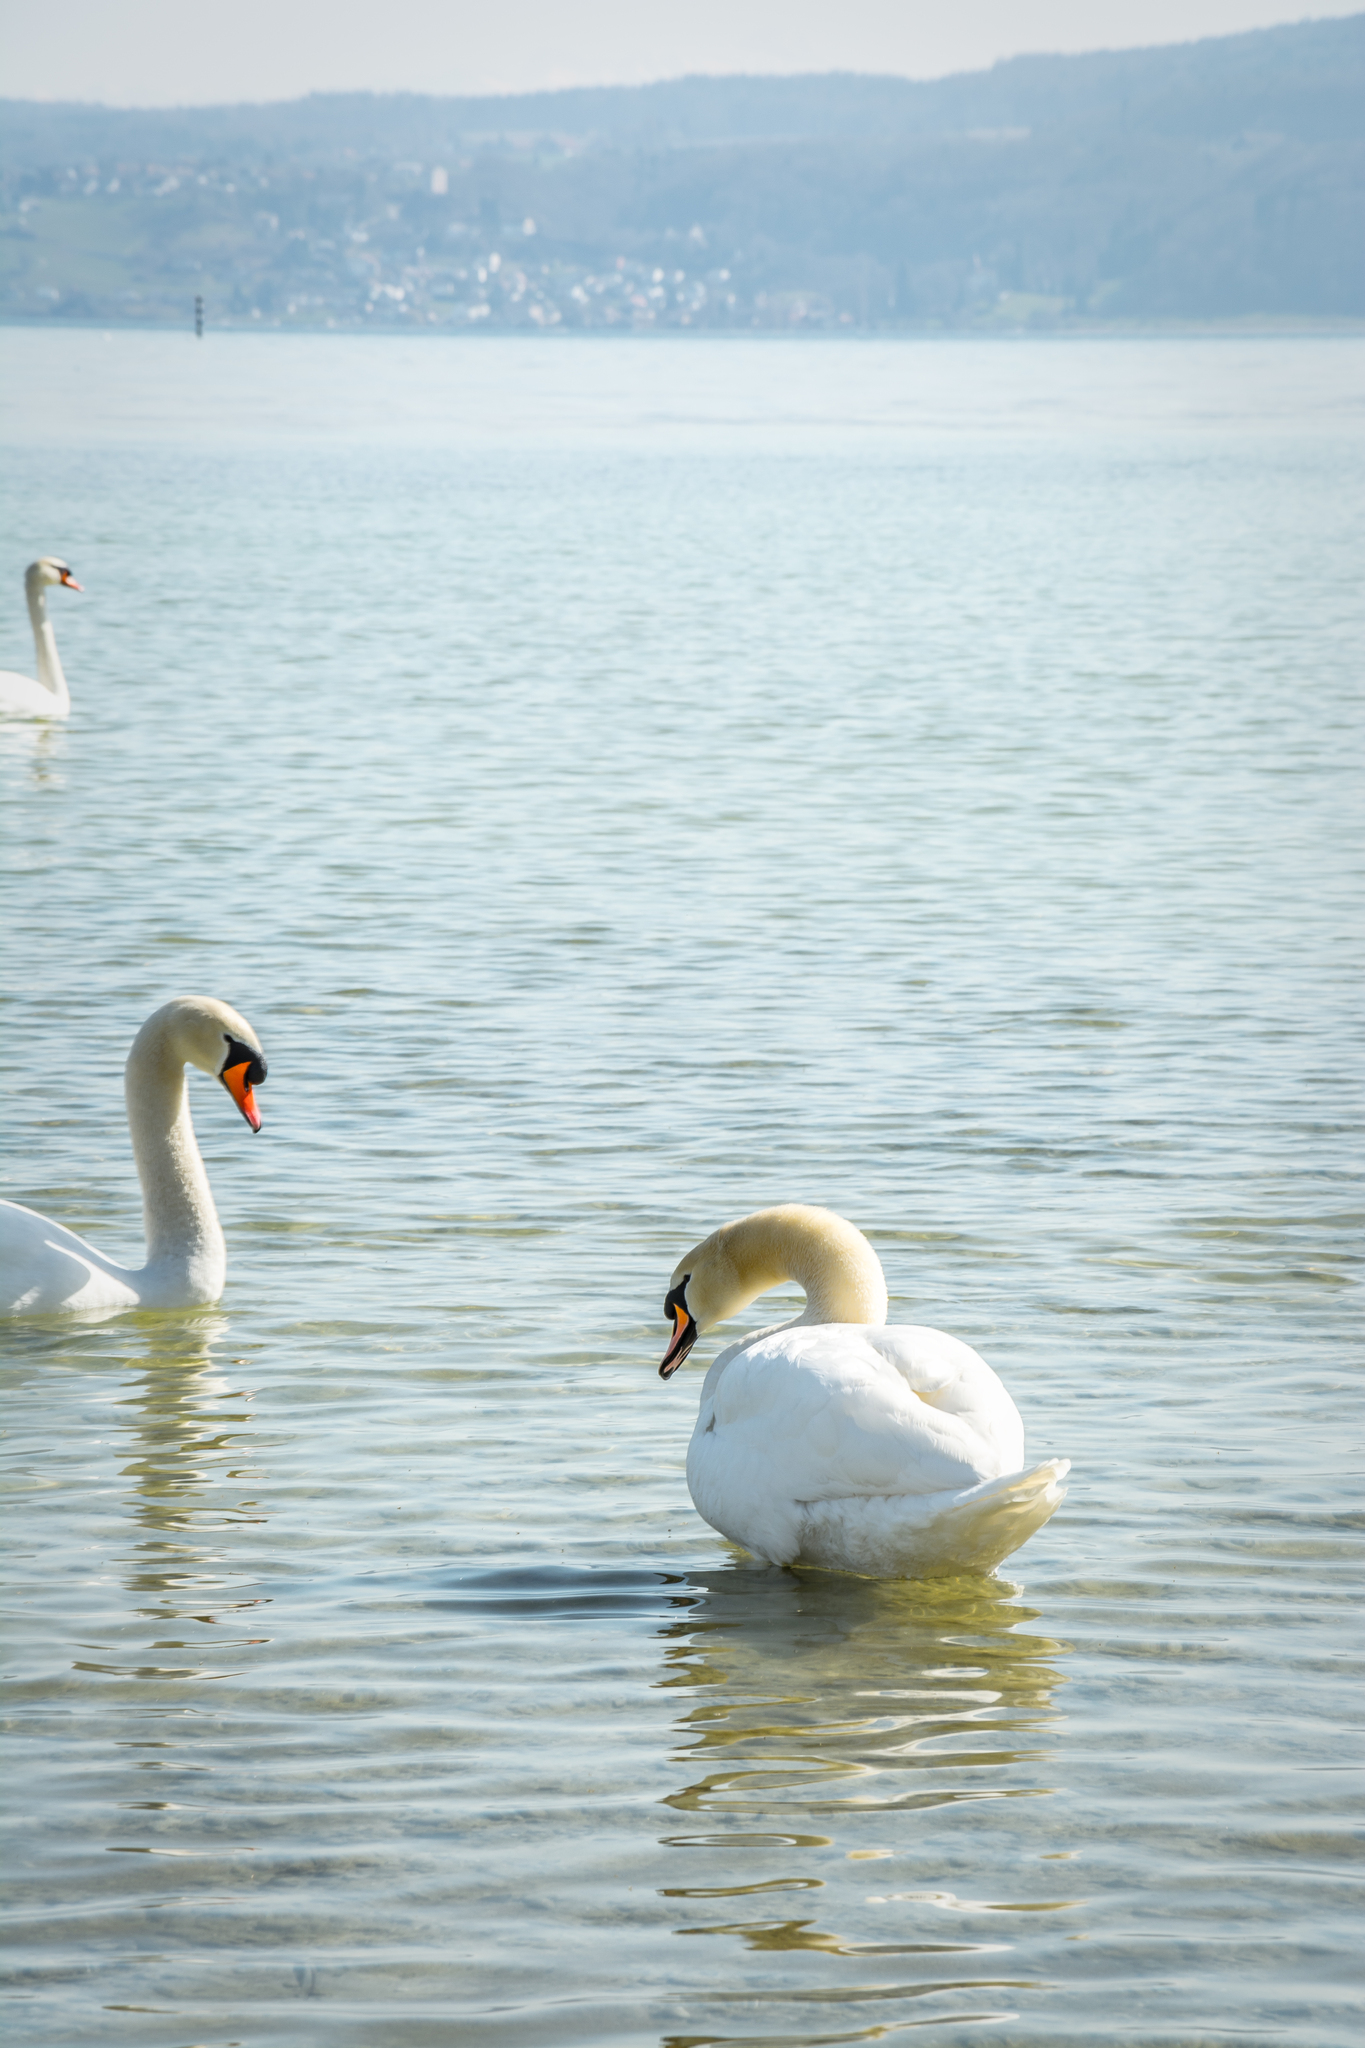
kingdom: Animalia
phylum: Chordata
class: Aves
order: Anseriformes
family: Anatidae
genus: Cygnus
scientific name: Cygnus olor
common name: Mute swan
